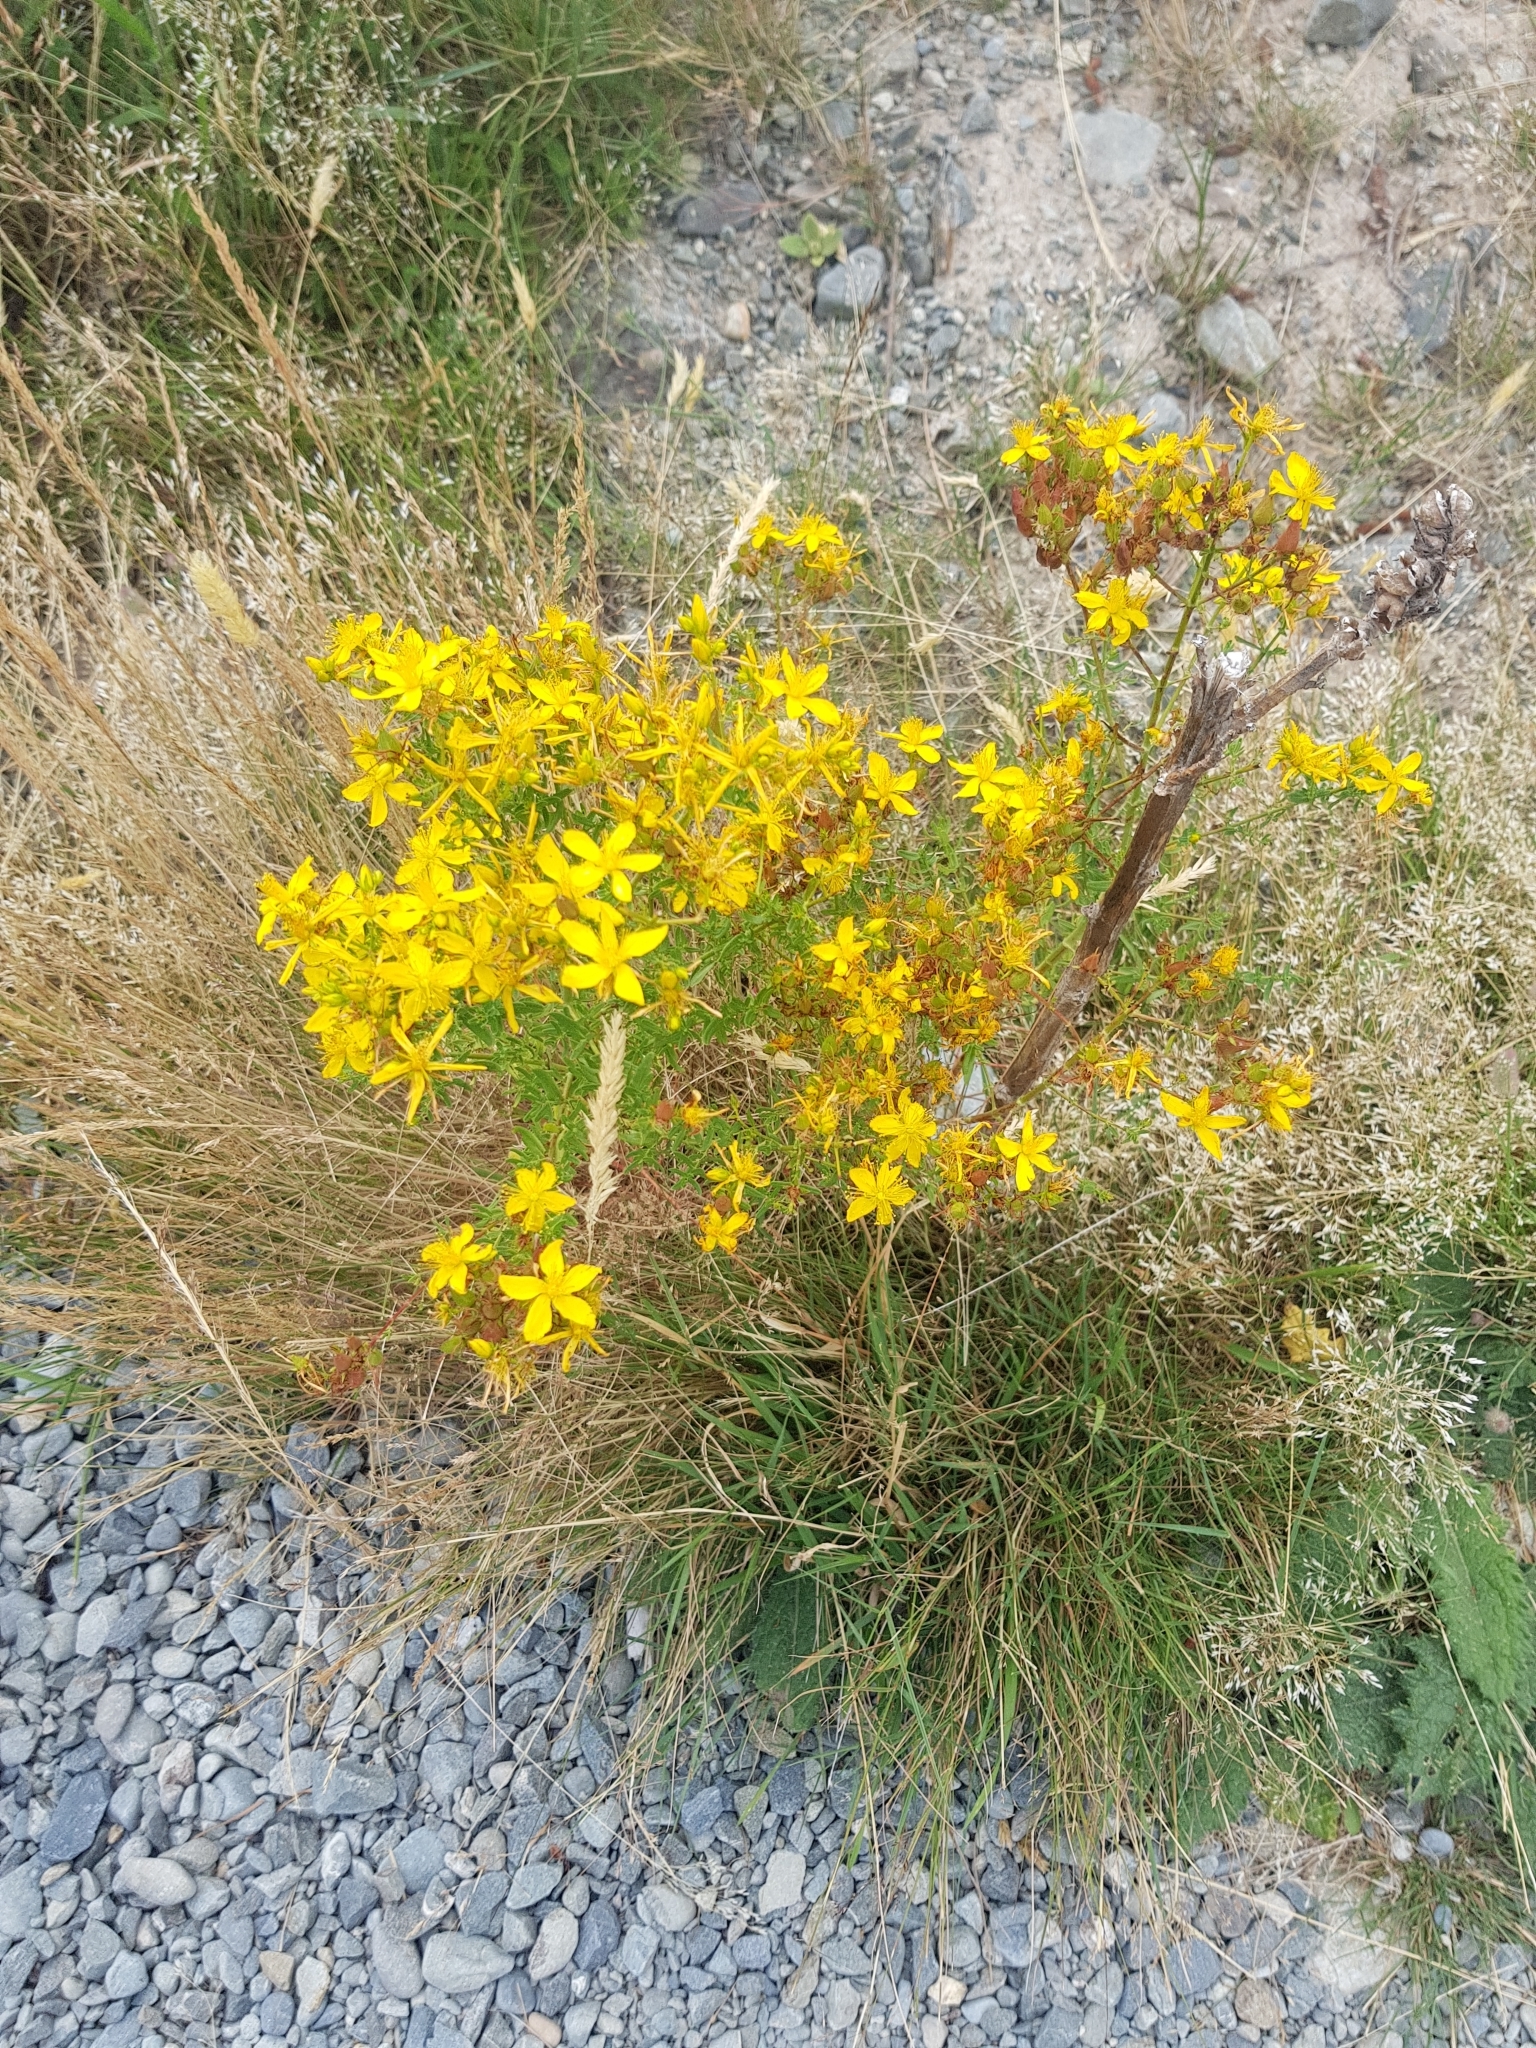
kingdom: Plantae
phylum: Tracheophyta
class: Magnoliopsida
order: Malpighiales
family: Hypericaceae
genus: Hypericum
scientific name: Hypericum perforatum
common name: Common st. johnswort
